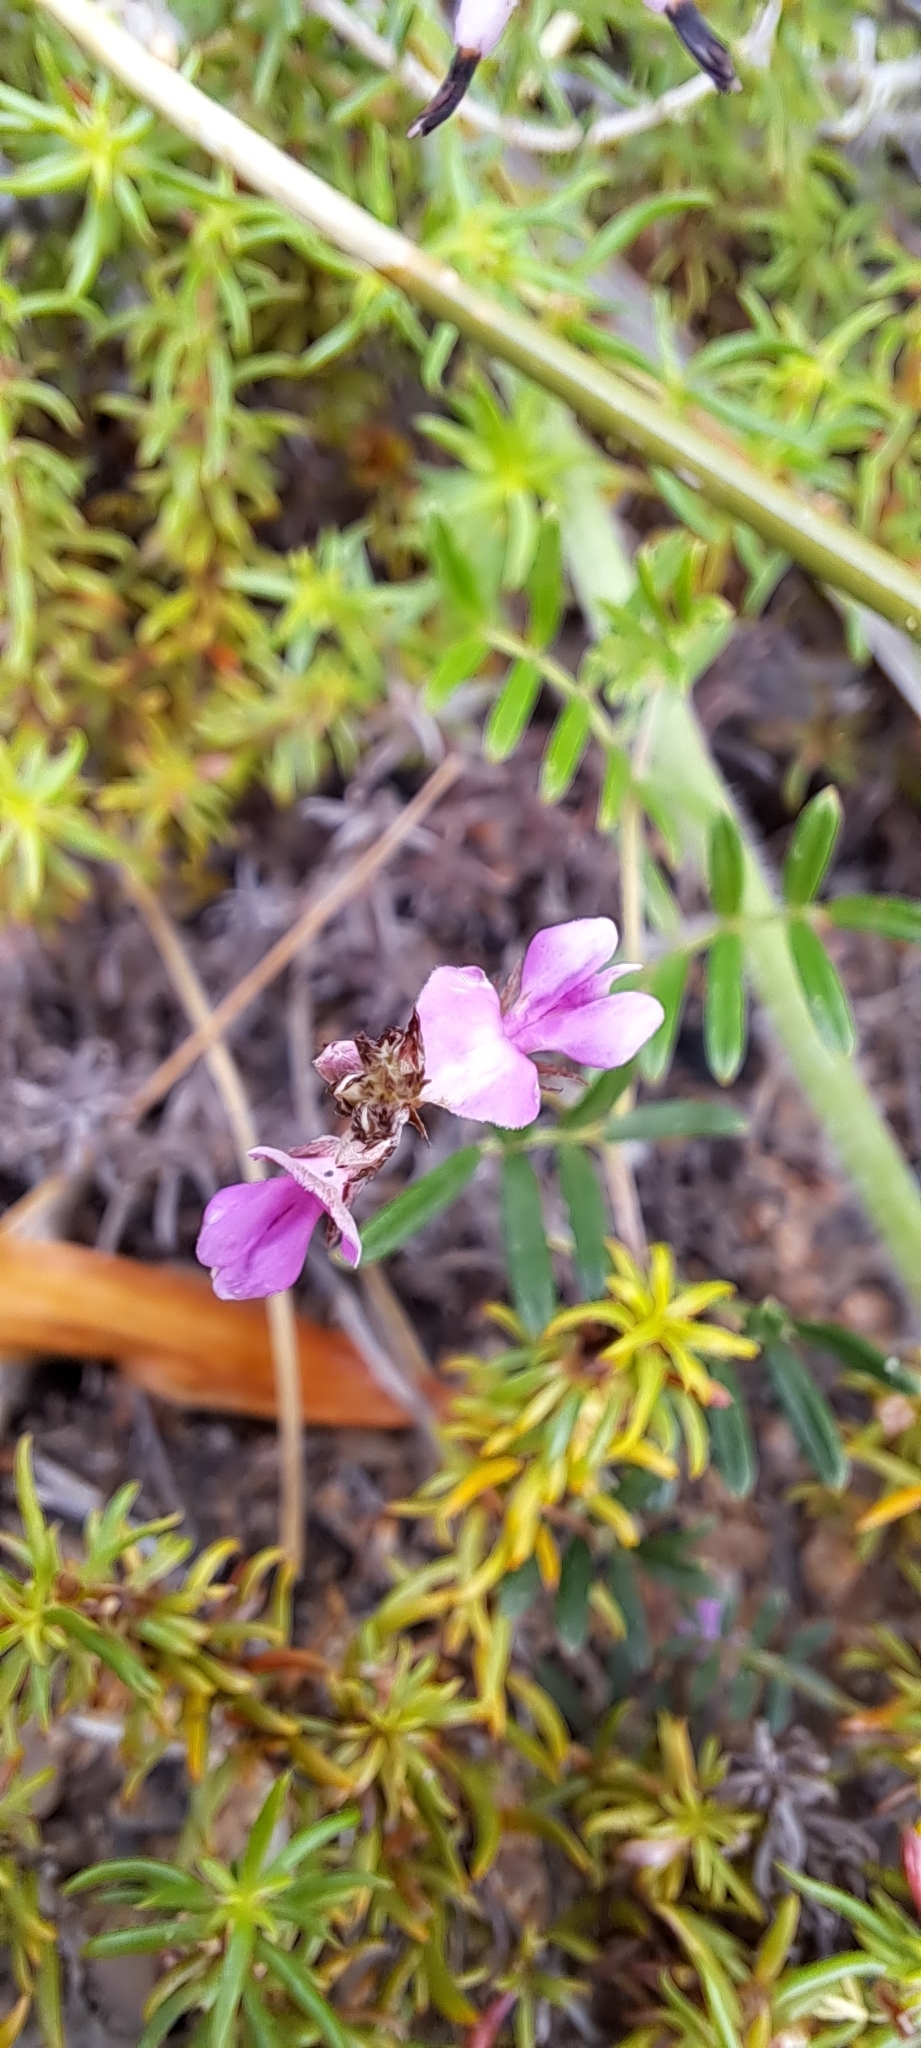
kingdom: Plantae
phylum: Tracheophyta
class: Magnoliopsida
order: Fabales
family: Fabaceae
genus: Indigofera
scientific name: Indigofera angustifolia
